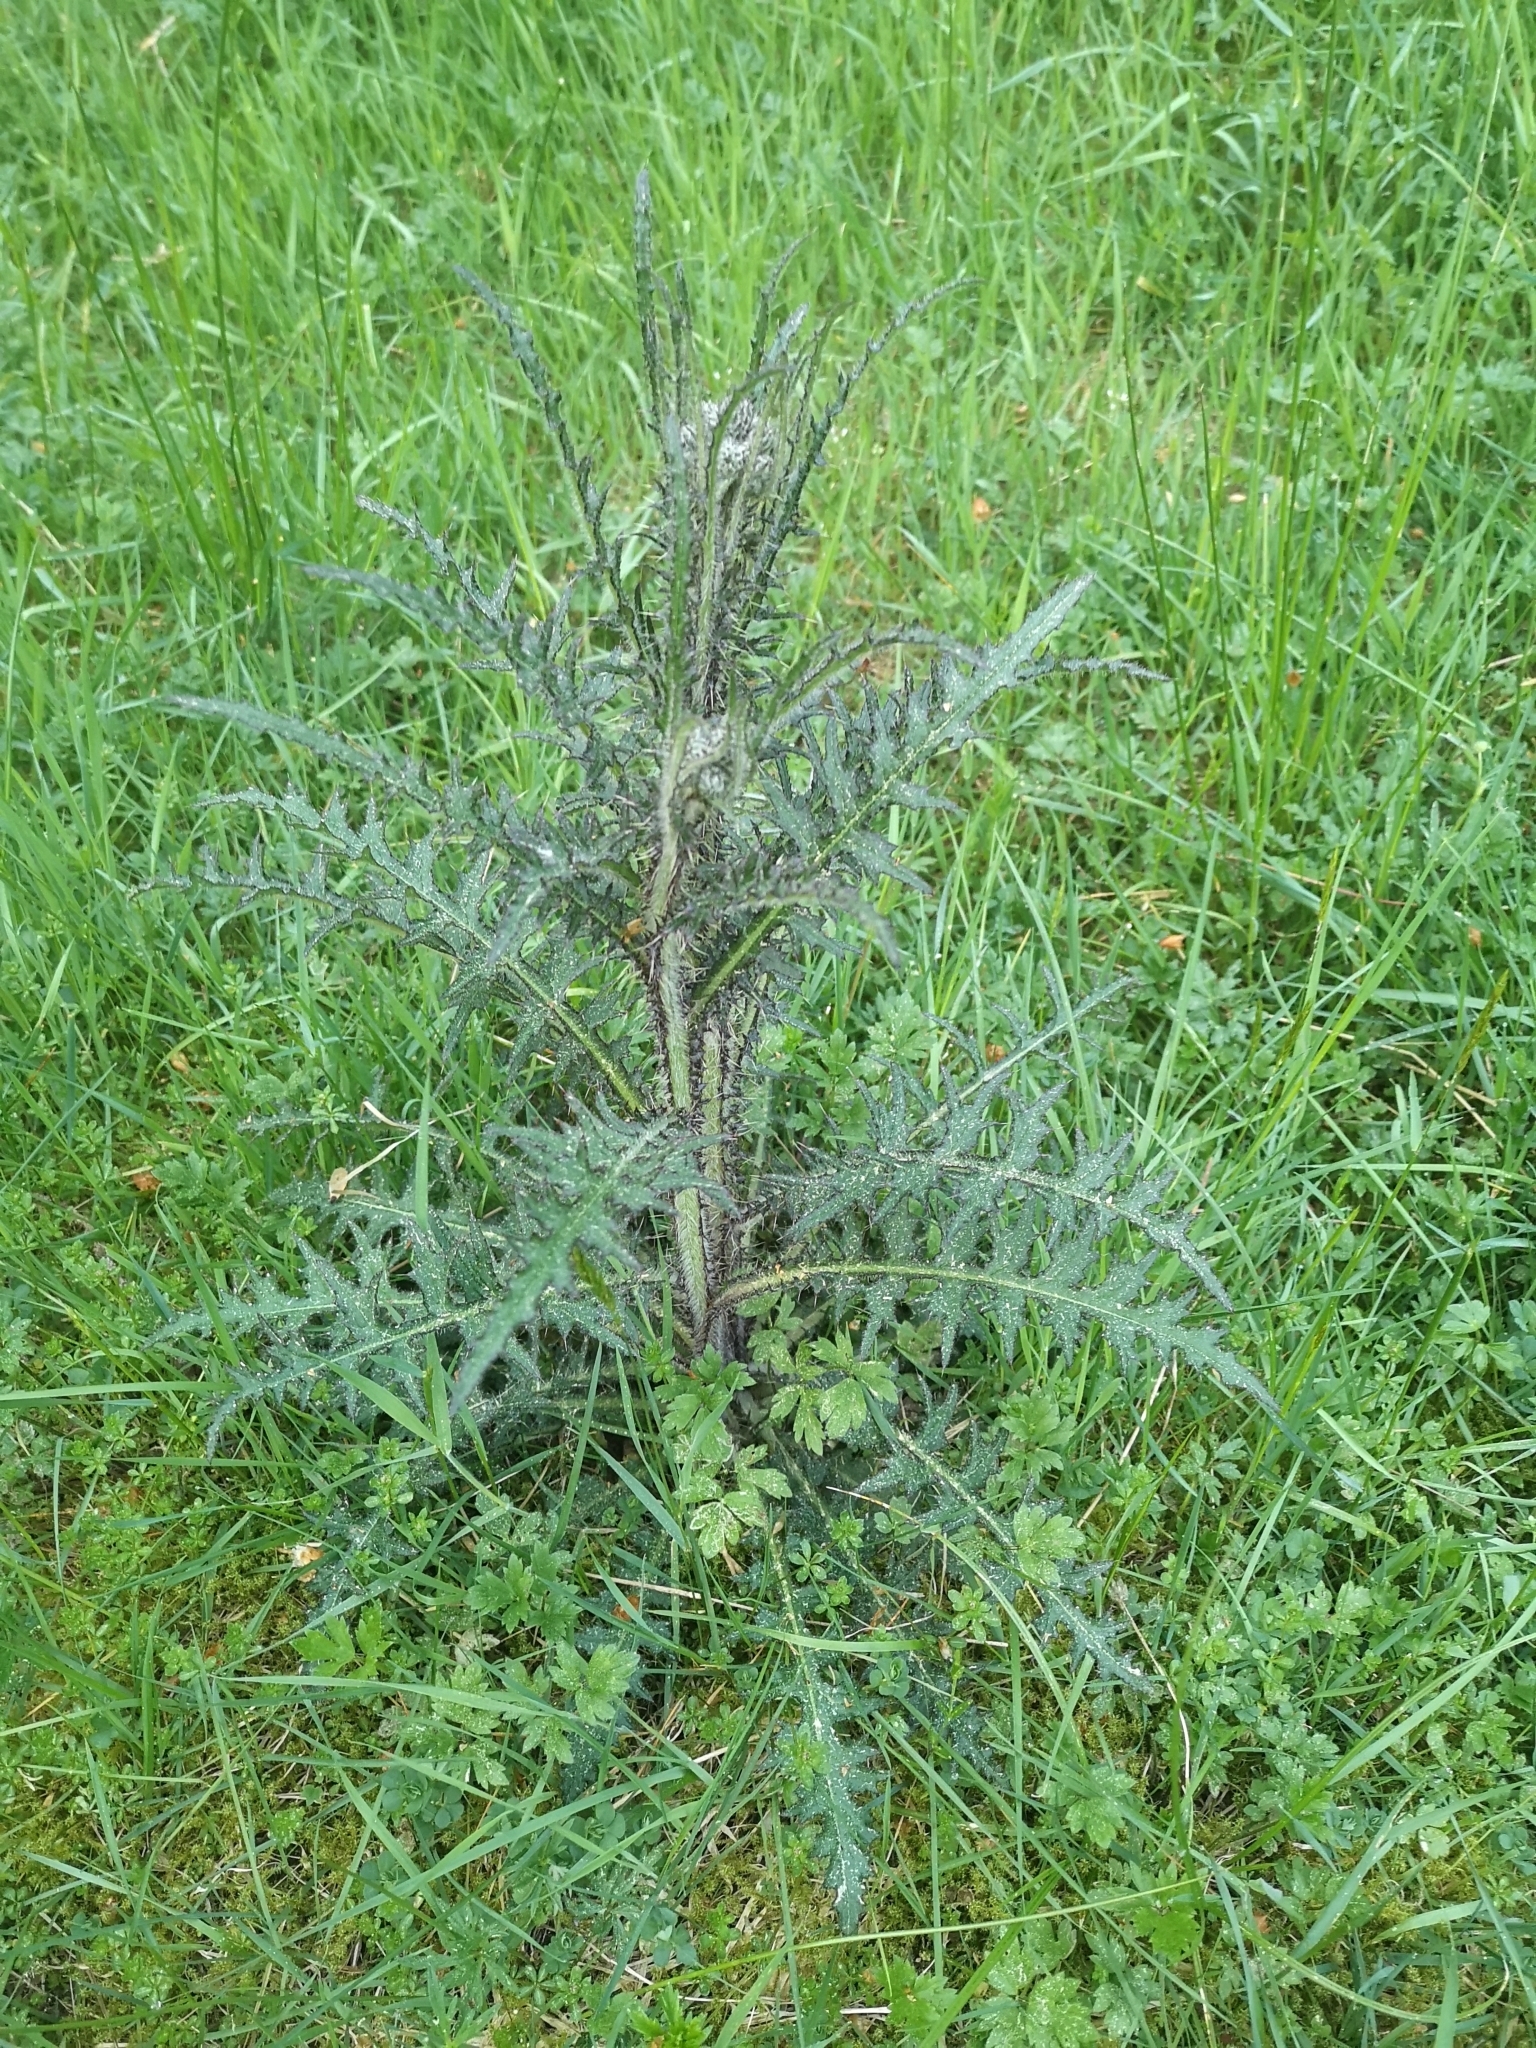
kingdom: Plantae
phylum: Tracheophyta
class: Magnoliopsida
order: Asterales
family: Asteraceae
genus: Cirsium
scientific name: Cirsium palustre
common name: Marsh thistle
